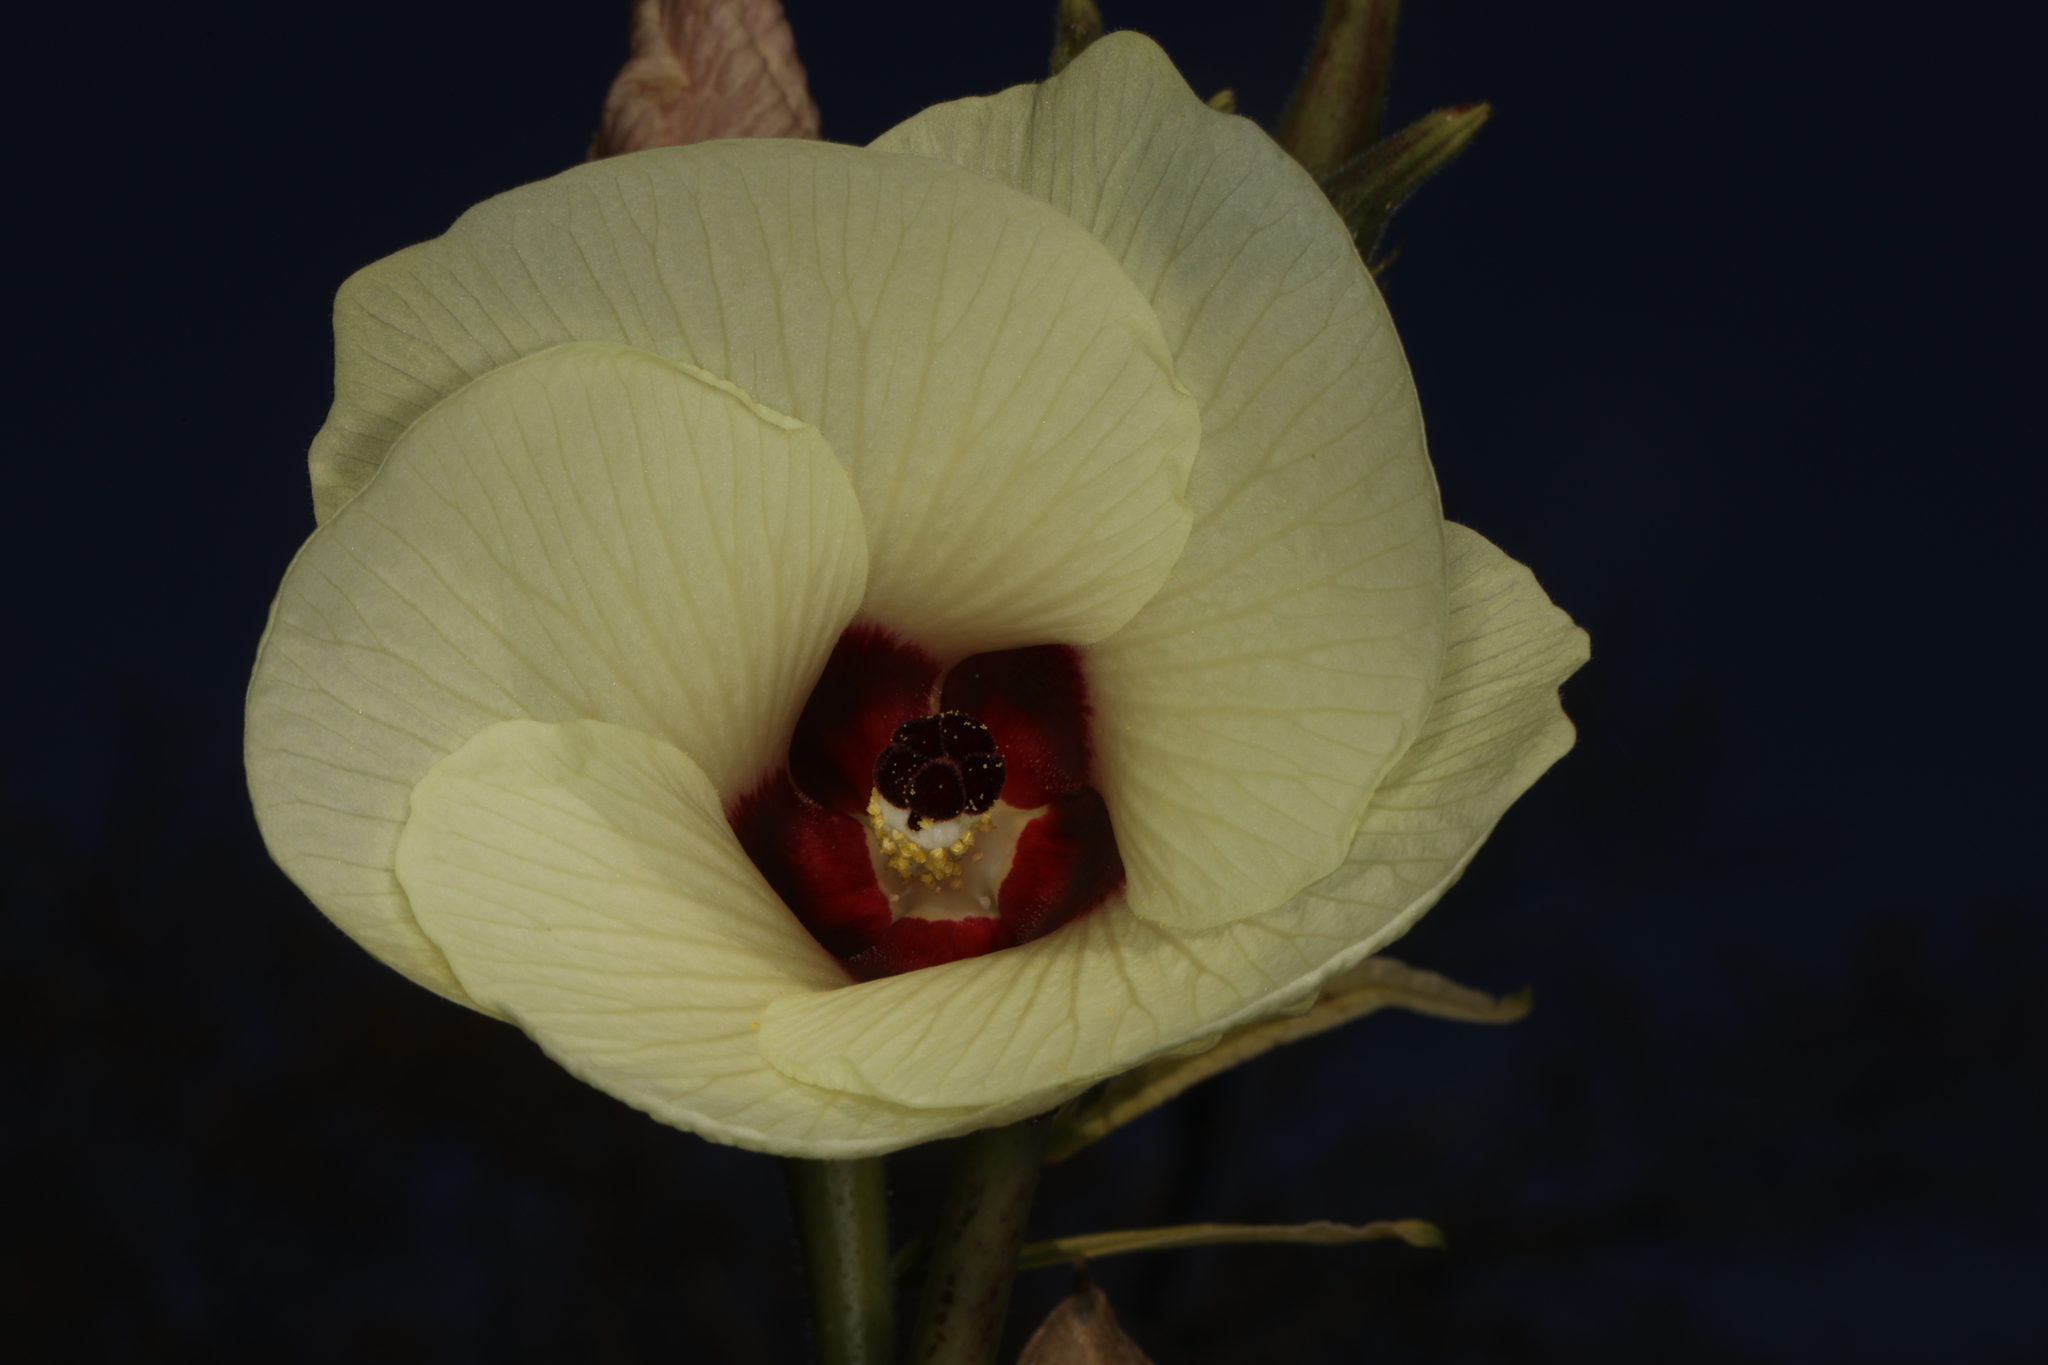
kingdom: Plantae
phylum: Tracheophyta
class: Magnoliopsida
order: Malvales
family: Malvaceae
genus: Abelmoschus
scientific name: Abelmoschus esculentus
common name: Okra
